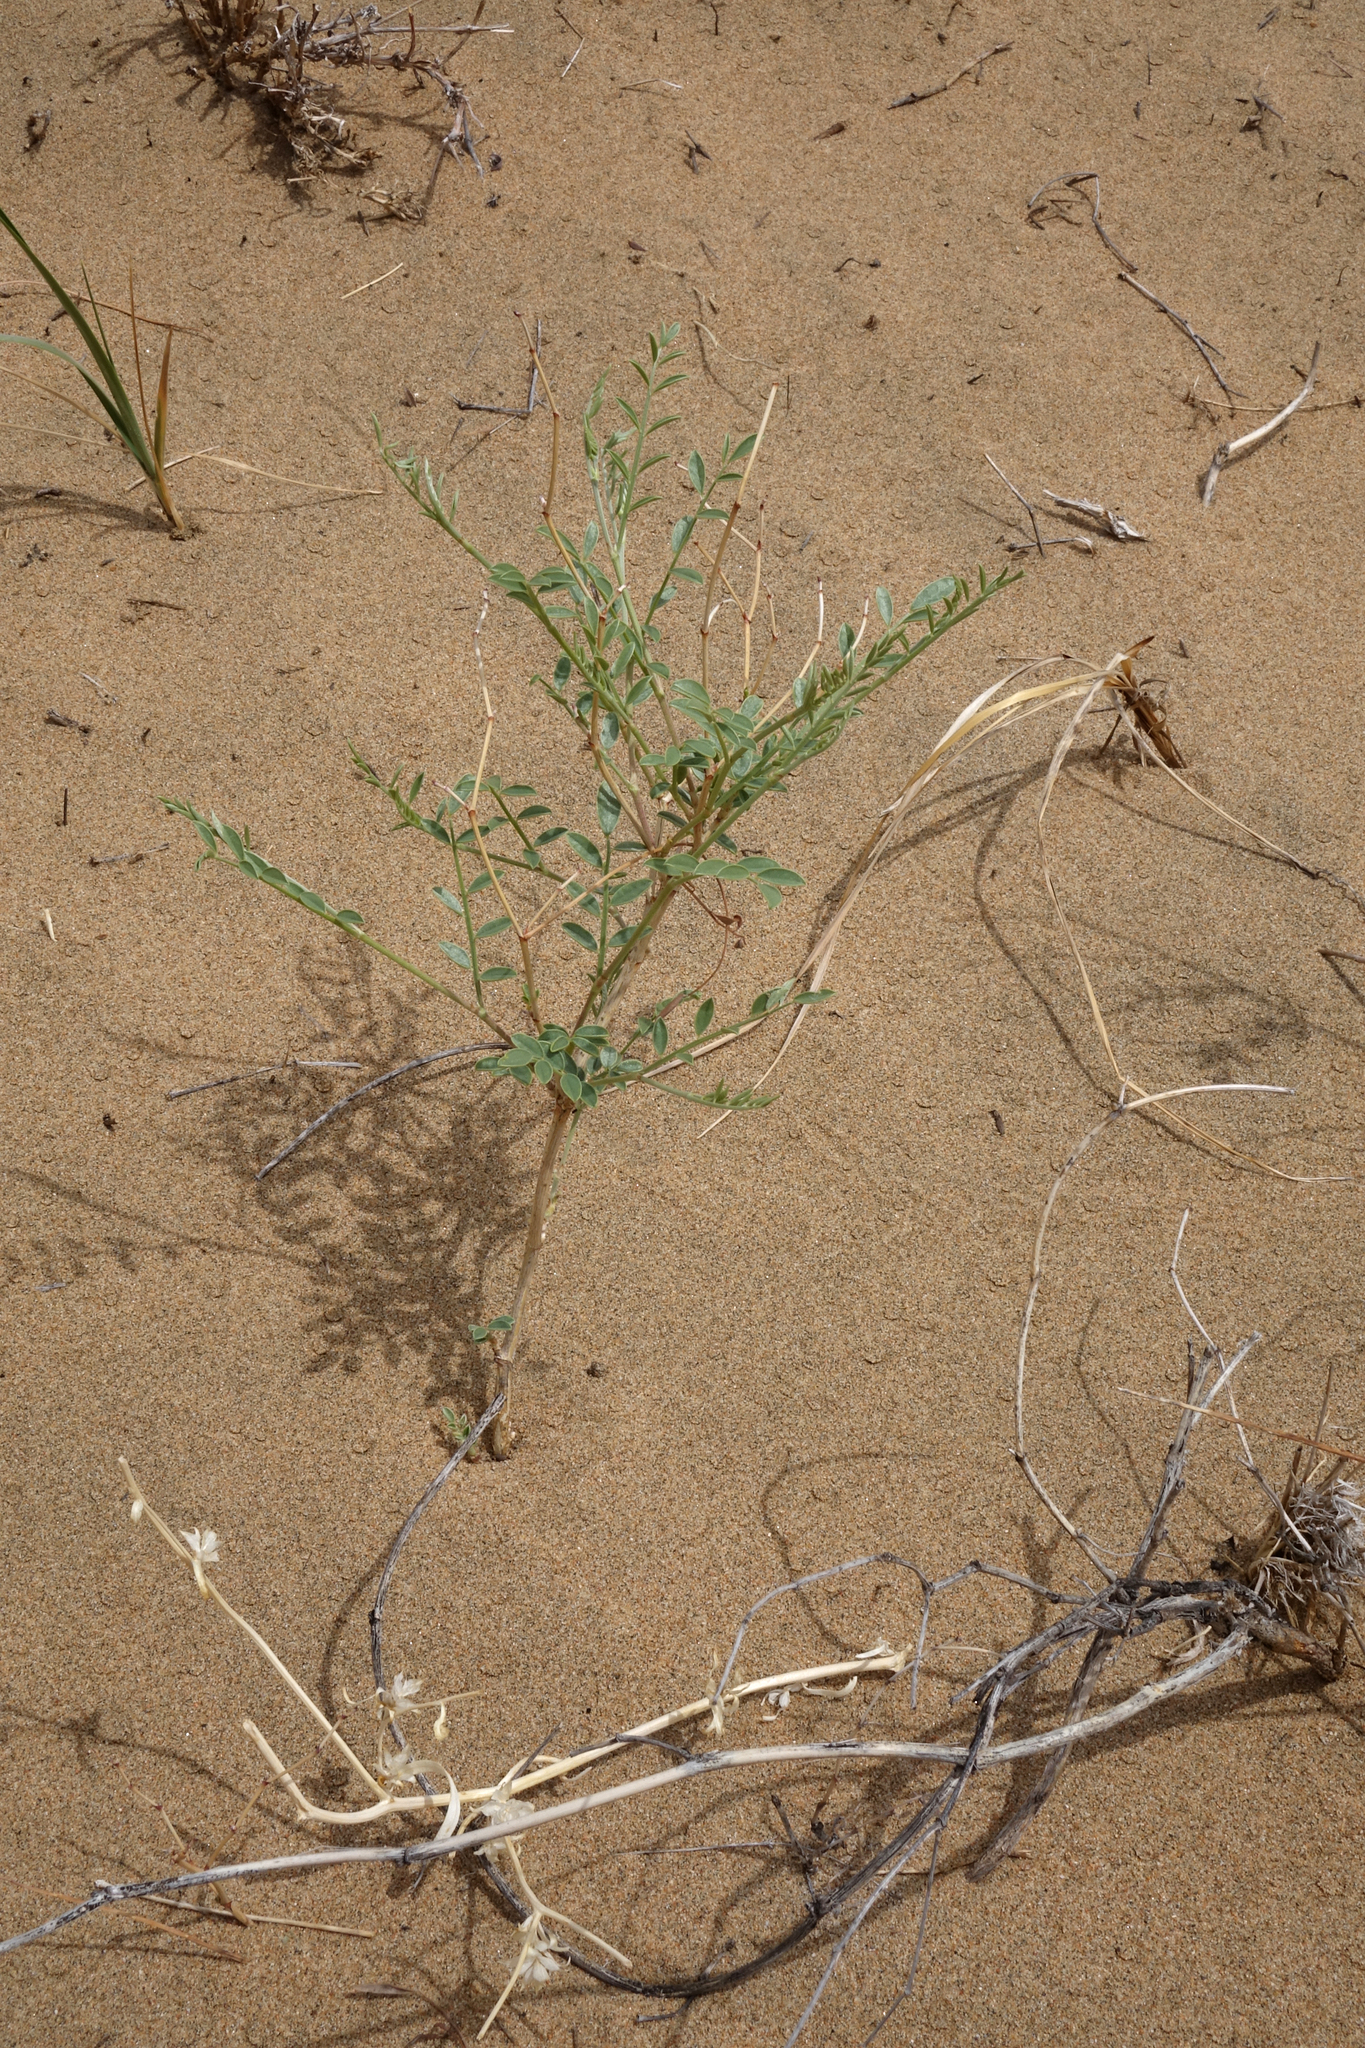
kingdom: Plantae
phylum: Tracheophyta
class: Magnoliopsida
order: Fabales
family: Fabaceae
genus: Corethrodendron
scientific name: Corethrodendron fruticosum
